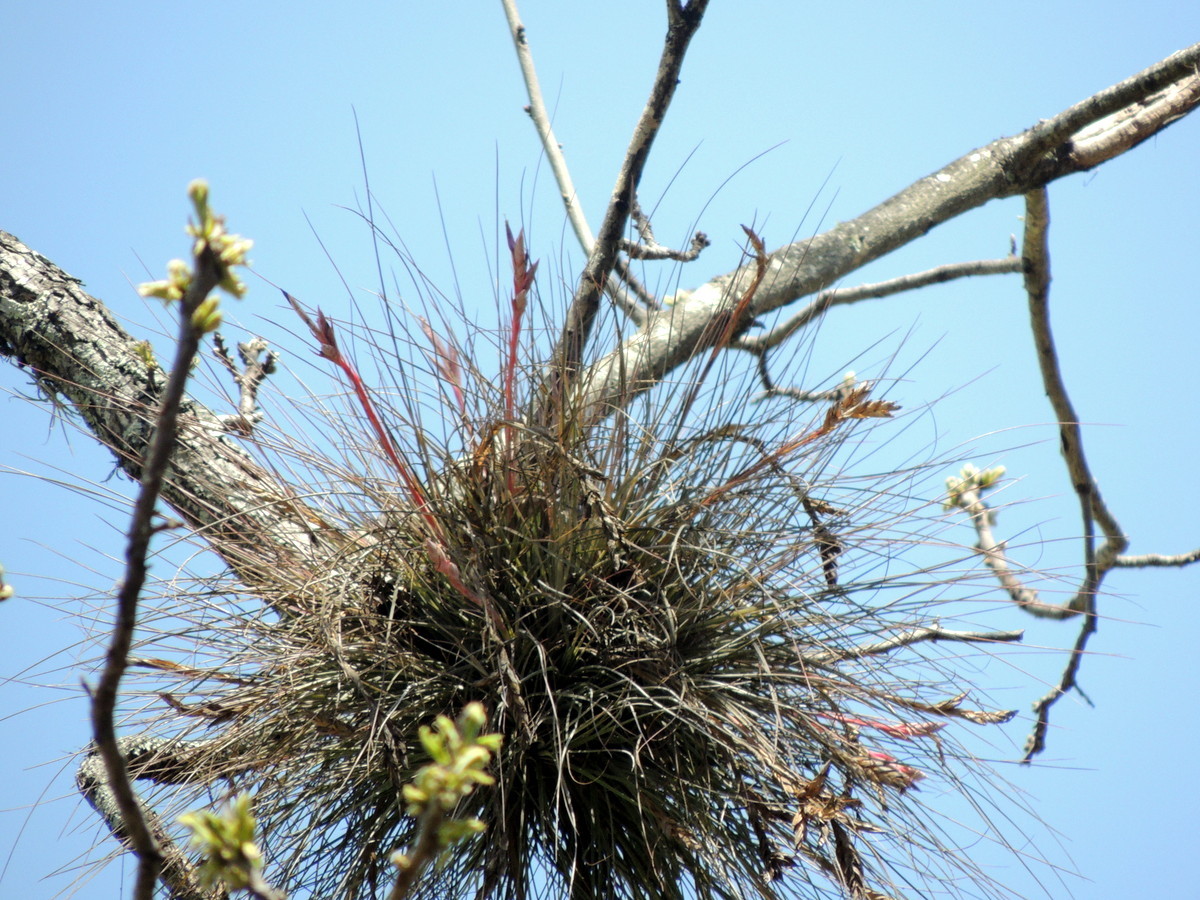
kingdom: Plantae
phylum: Tracheophyta
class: Liliopsida
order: Poales
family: Bromeliaceae
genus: Tillandsia
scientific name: Tillandsia bartramii
